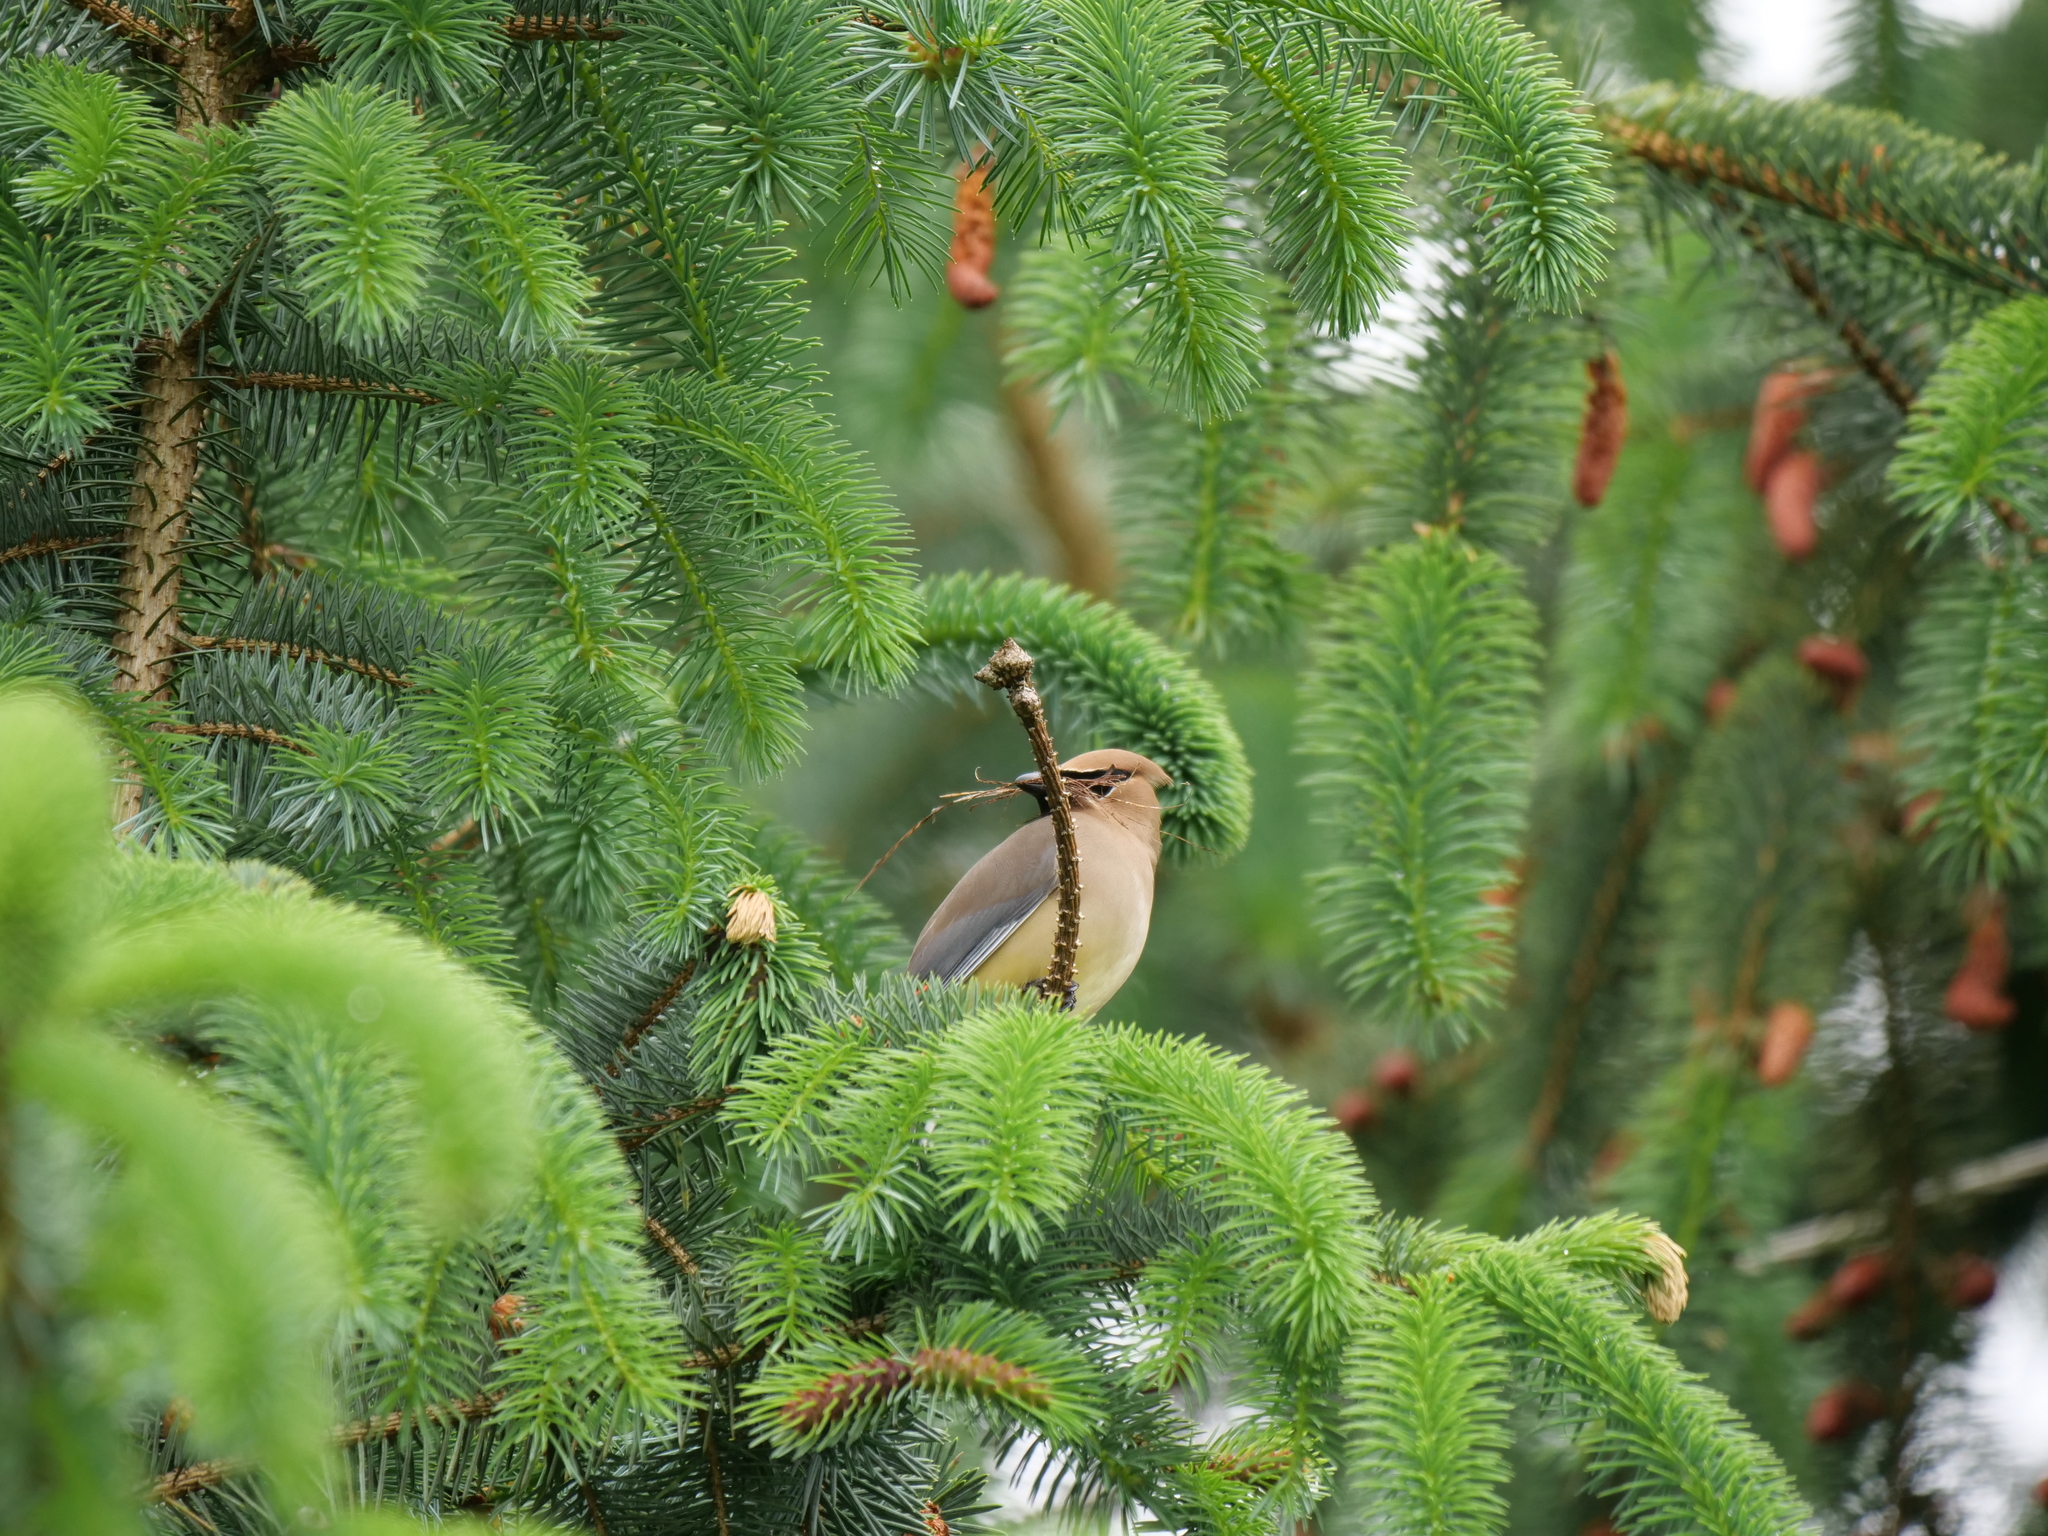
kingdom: Animalia
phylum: Chordata
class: Aves
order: Passeriformes
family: Bombycillidae
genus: Bombycilla
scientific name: Bombycilla cedrorum
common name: Cedar waxwing
